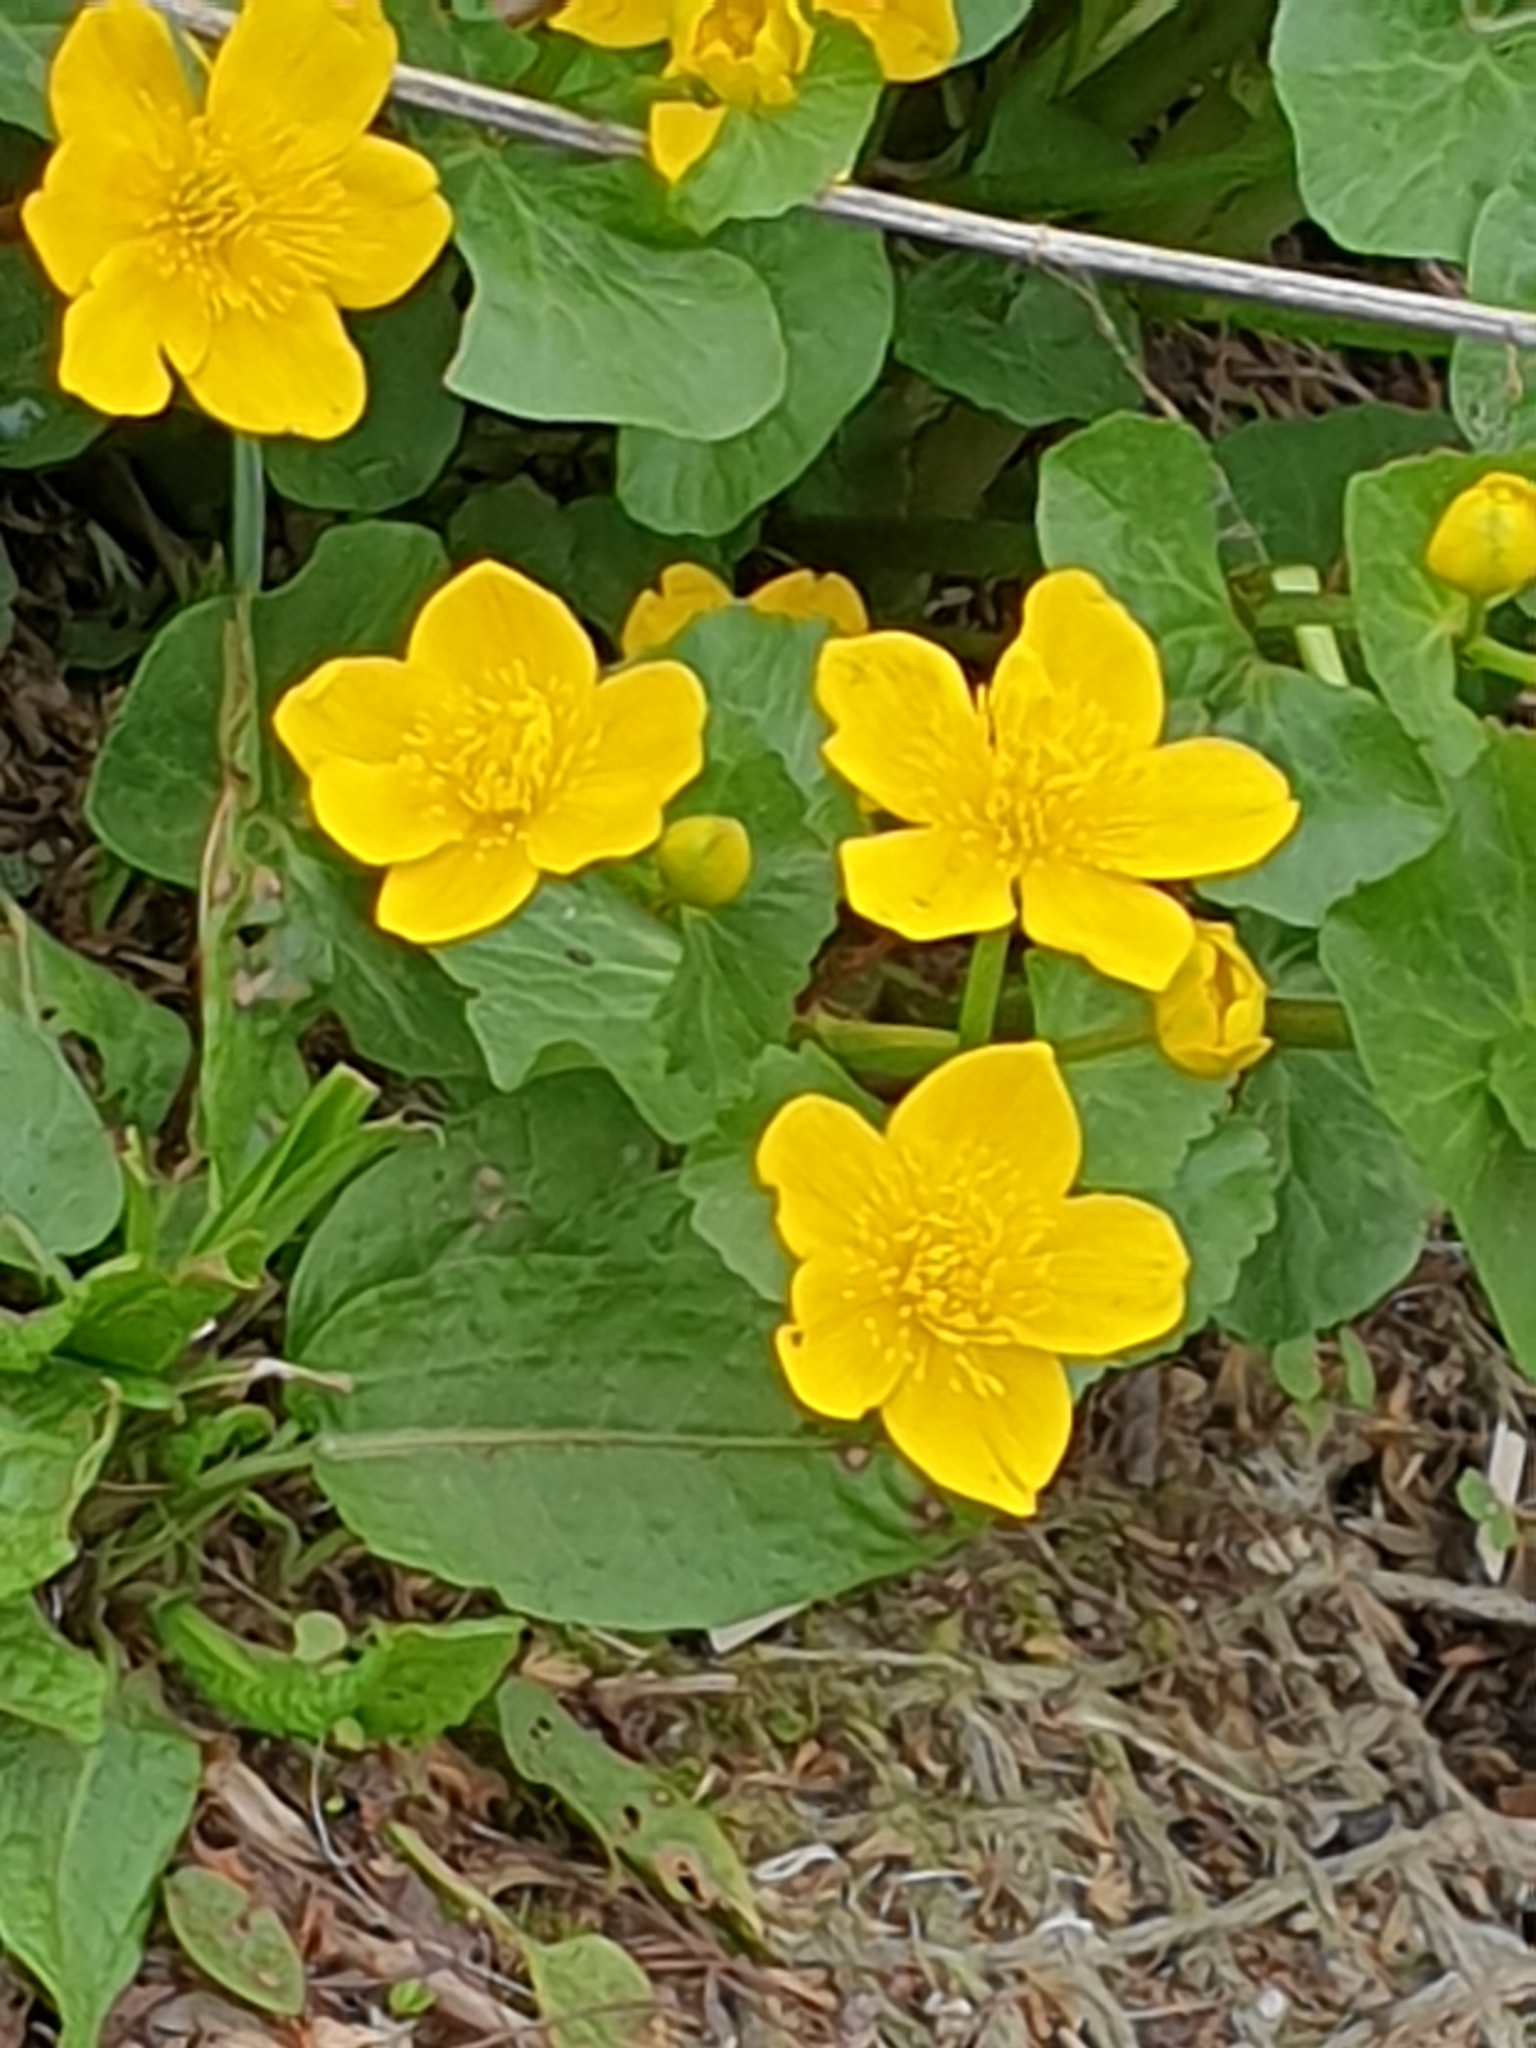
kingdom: Plantae
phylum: Tracheophyta
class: Magnoliopsida
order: Ranunculales
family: Ranunculaceae
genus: Caltha
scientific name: Caltha palustris
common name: Marsh marigold
